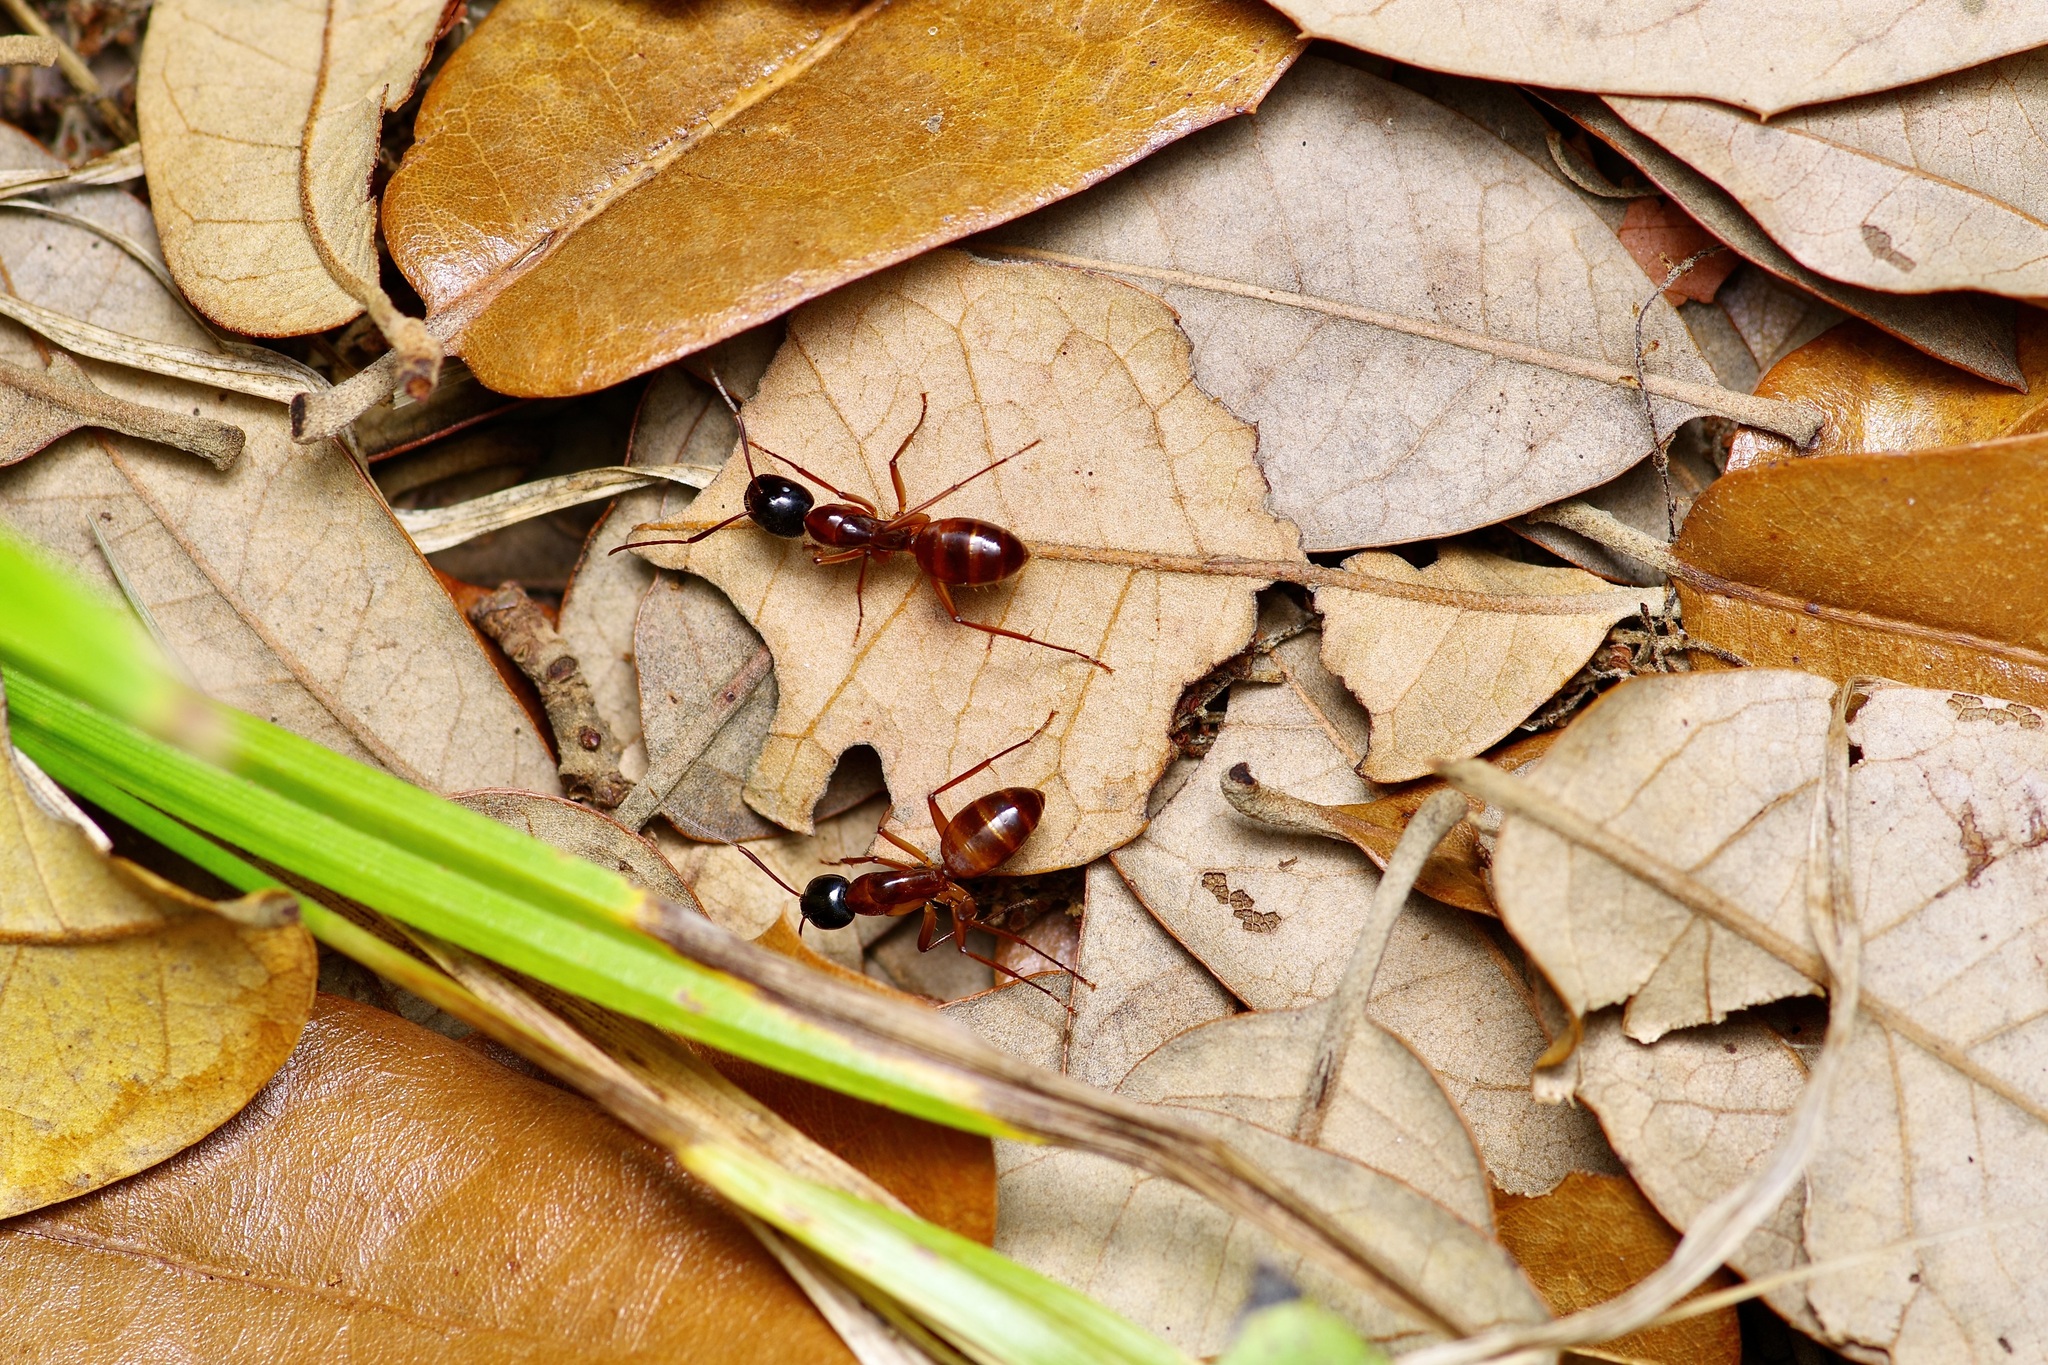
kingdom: Animalia
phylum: Arthropoda
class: Insecta
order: Hymenoptera
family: Formicidae
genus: Camponotus
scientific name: Camponotus americanus
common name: American carpenter ant
